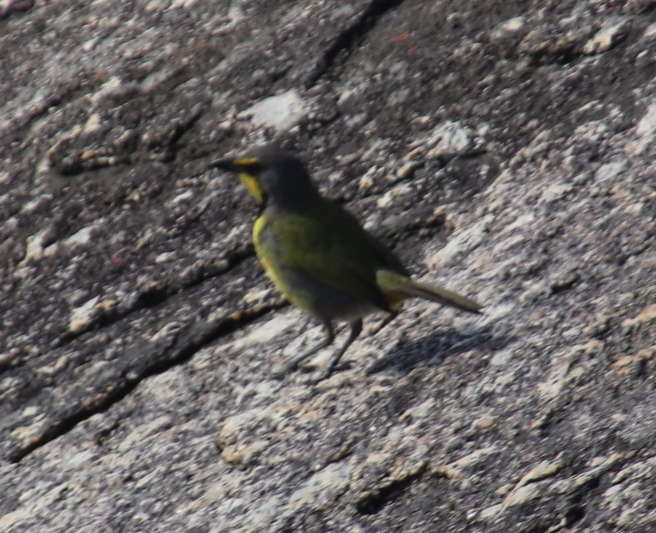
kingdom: Animalia
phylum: Chordata
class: Aves
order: Passeriformes
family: Malaconotidae
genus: Telophorus
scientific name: Telophorus zeylonus
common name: Bokmakierie
